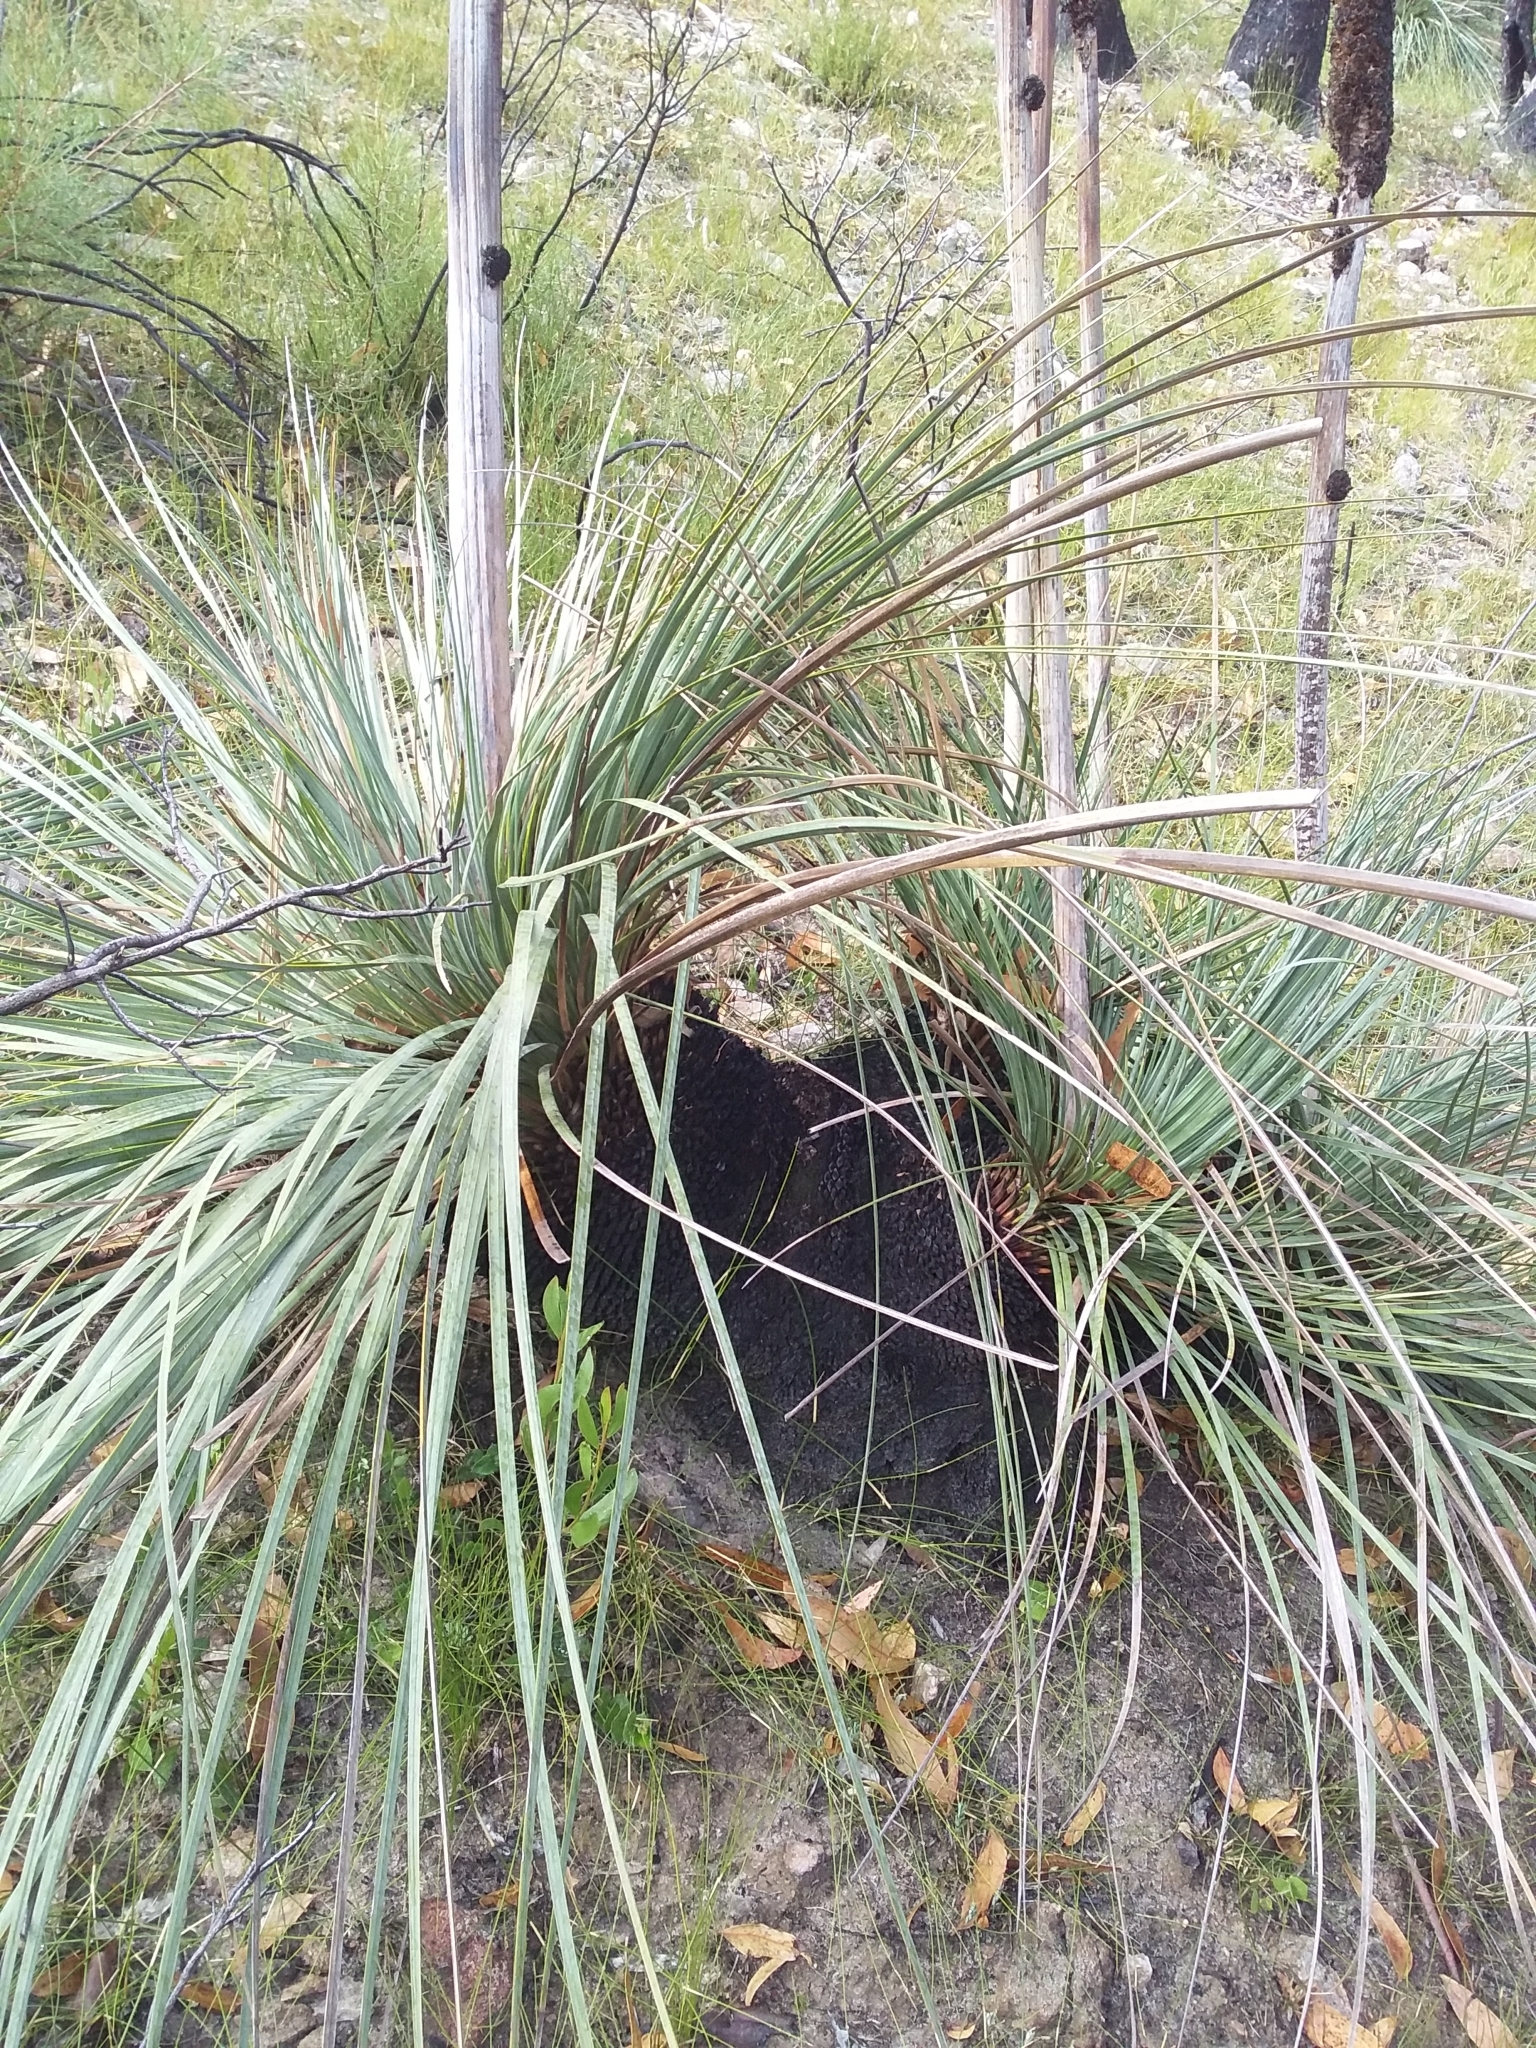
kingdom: Plantae
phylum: Tracheophyta
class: Liliopsida
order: Asparagales
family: Asphodelaceae
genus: Xanthorrhoea
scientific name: Xanthorrhoea semiplana
